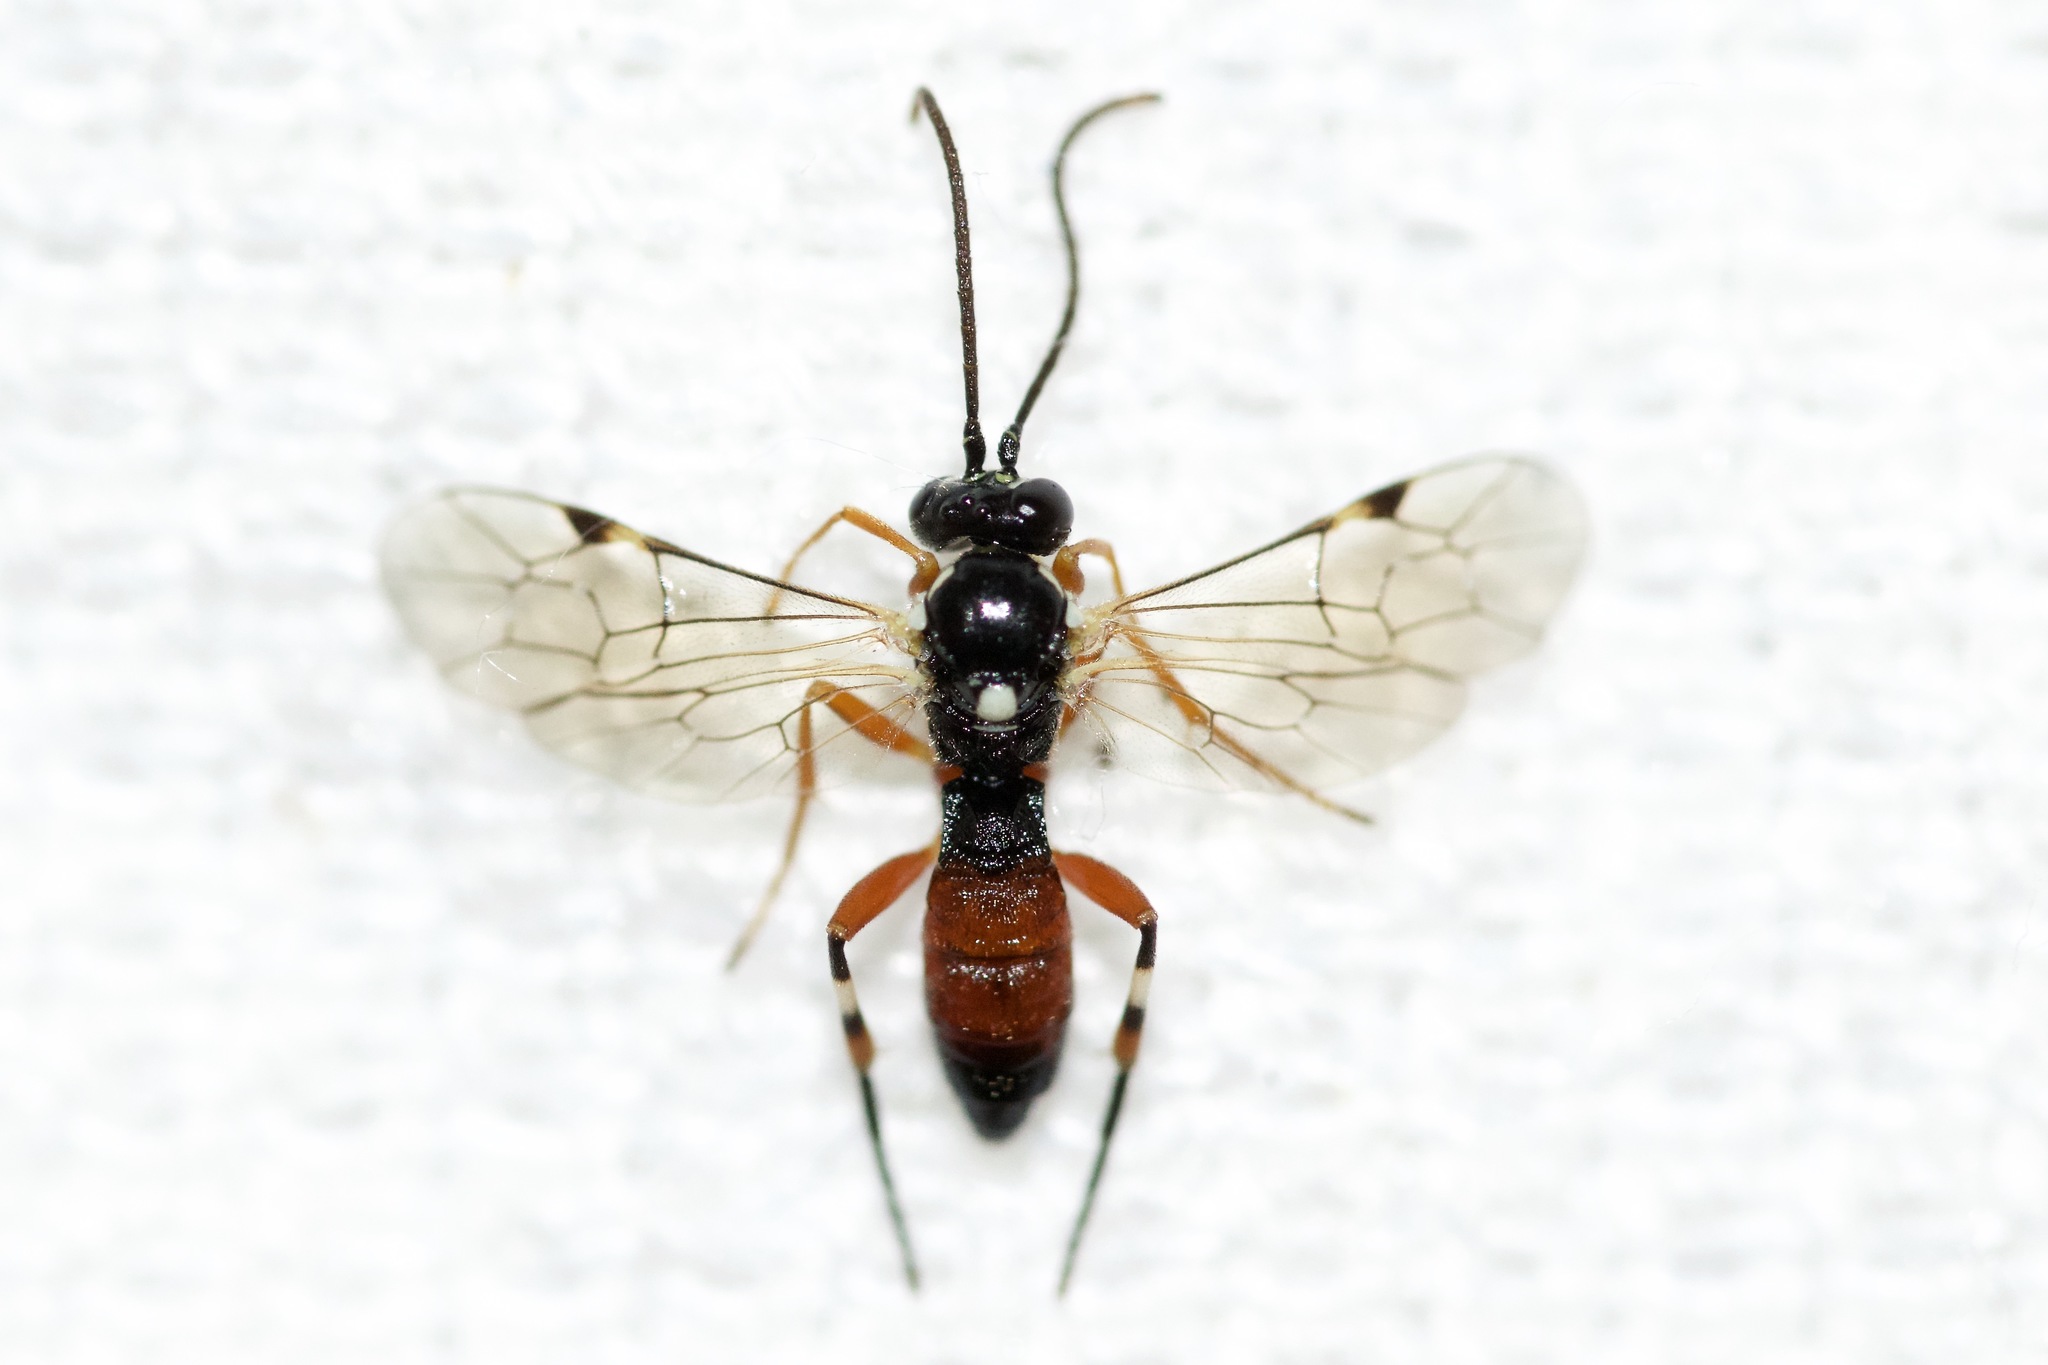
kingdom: Animalia
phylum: Arthropoda
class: Insecta
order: Hymenoptera
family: Ichneumonidae
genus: Diplazon
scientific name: Diplazon laetatorius
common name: Parasitoid wasp
